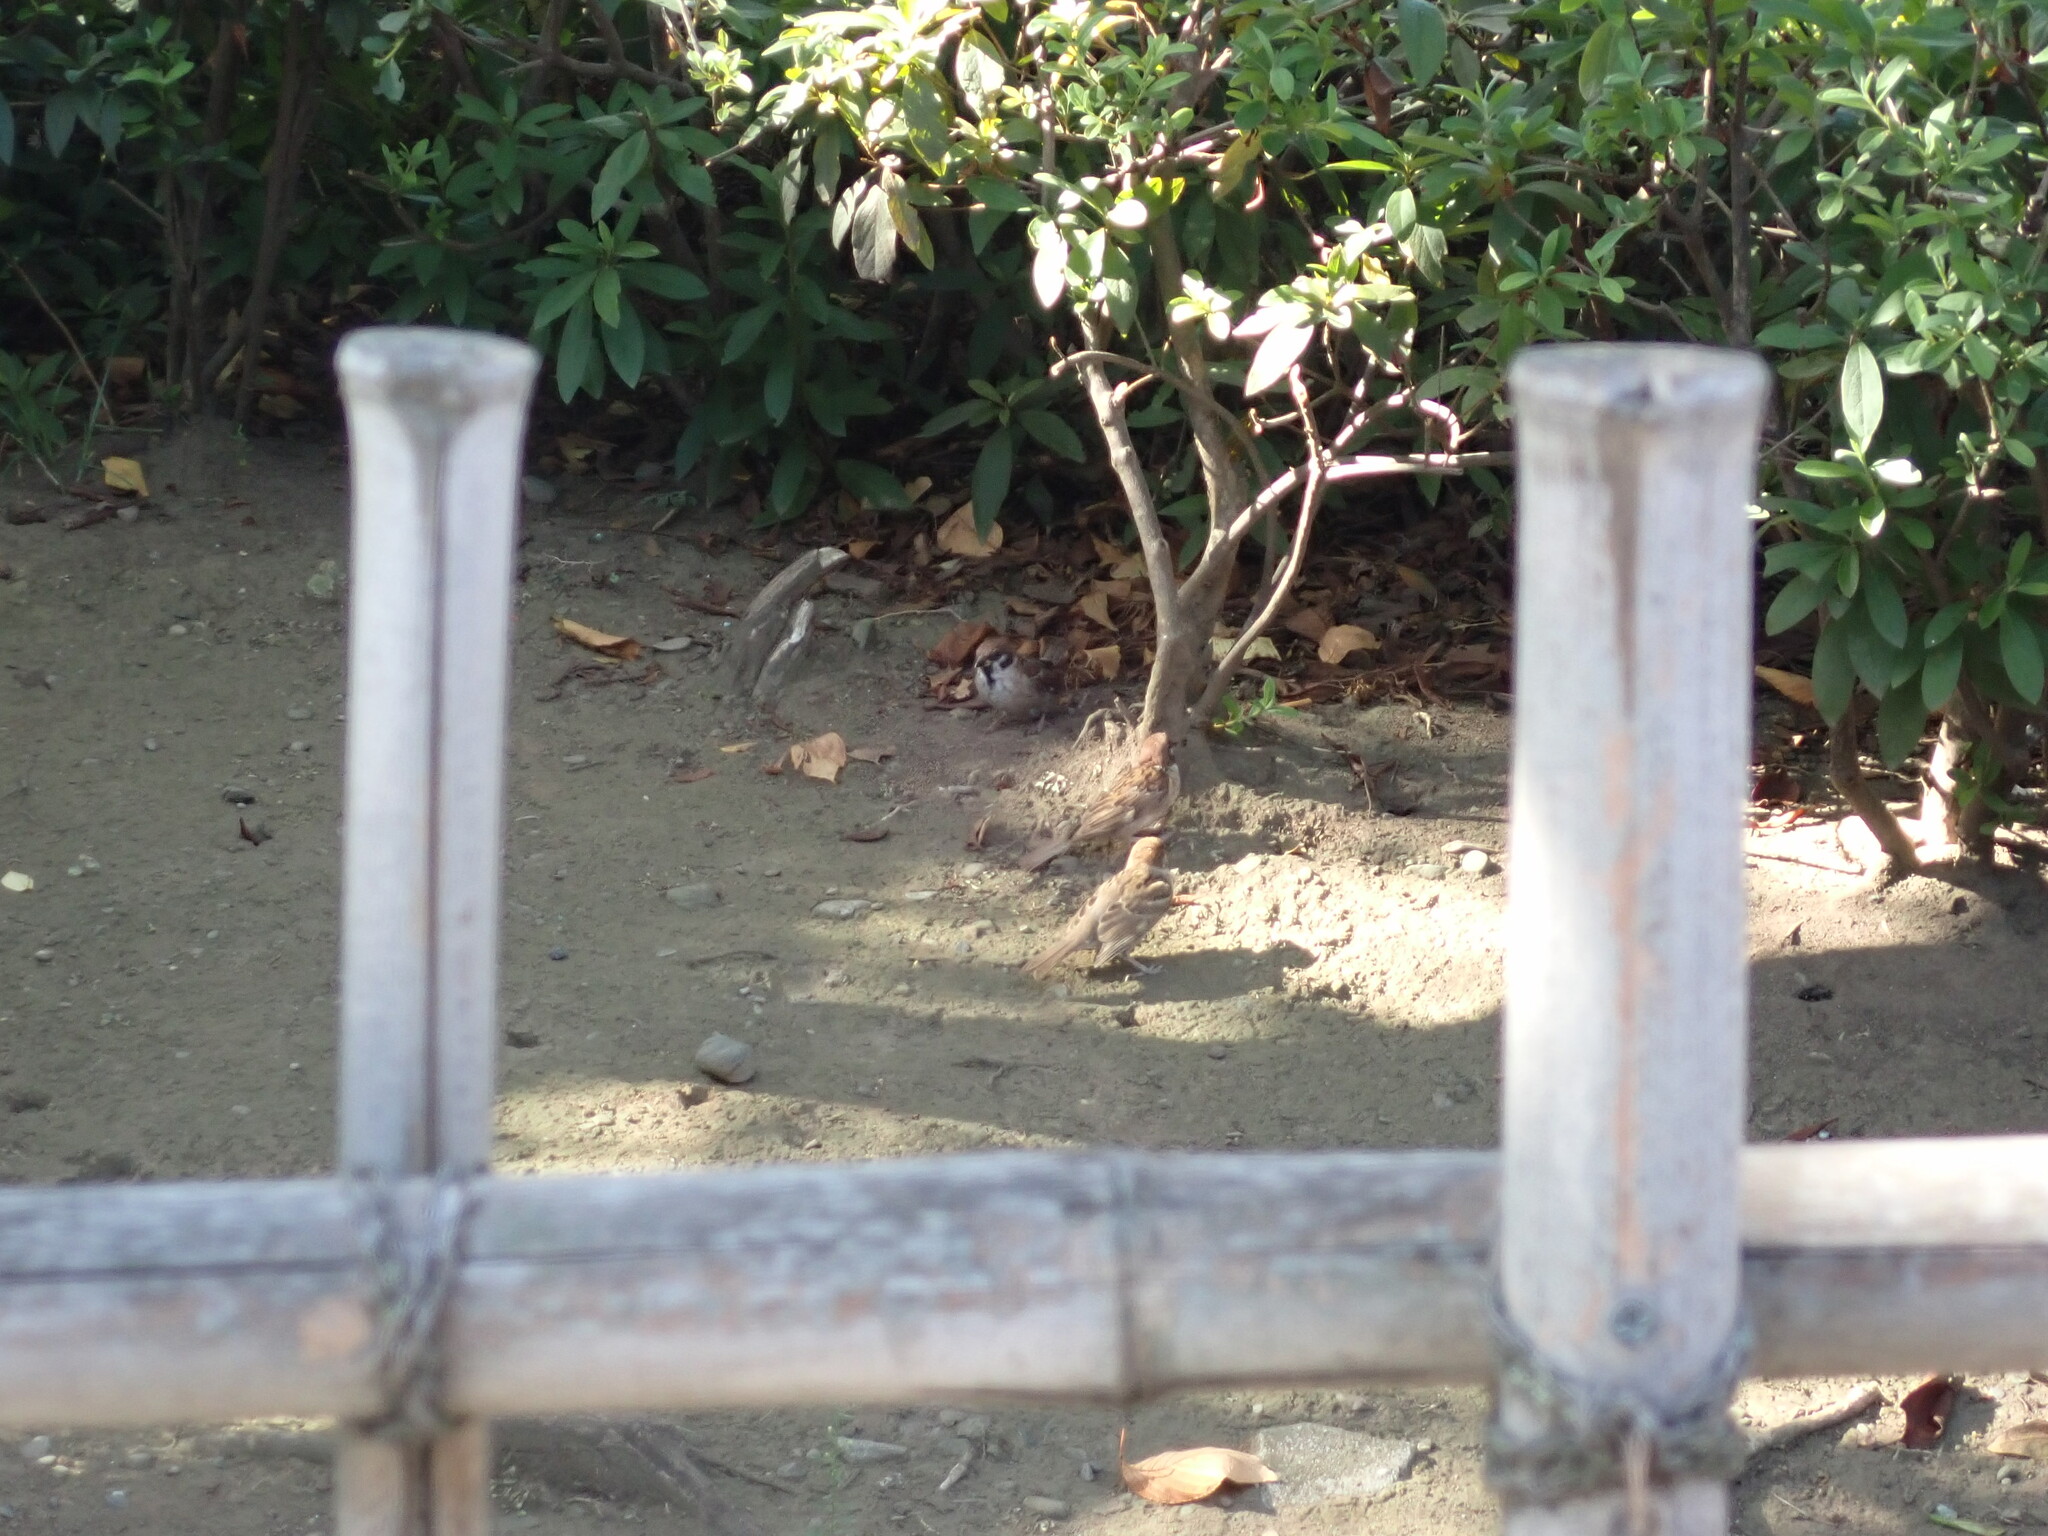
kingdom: Animalia
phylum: Chordata
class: Aves
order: Passeriformes
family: Passeridae
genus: Passer
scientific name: Passer montanus
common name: Eurasian tree sparrow
